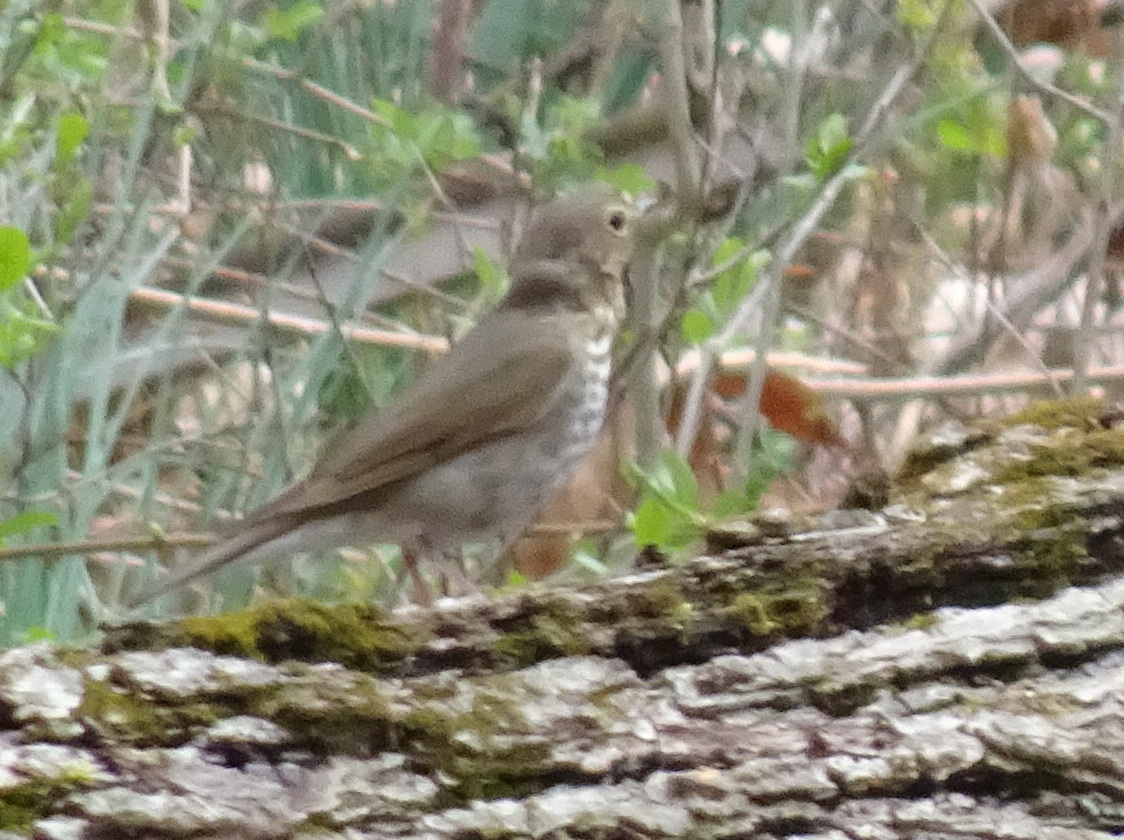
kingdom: Animalia
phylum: Chordata
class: Aves
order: Passeriformes
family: Turdidae
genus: Catharus
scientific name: Catharus ustulatus
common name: Swainson's thrush
